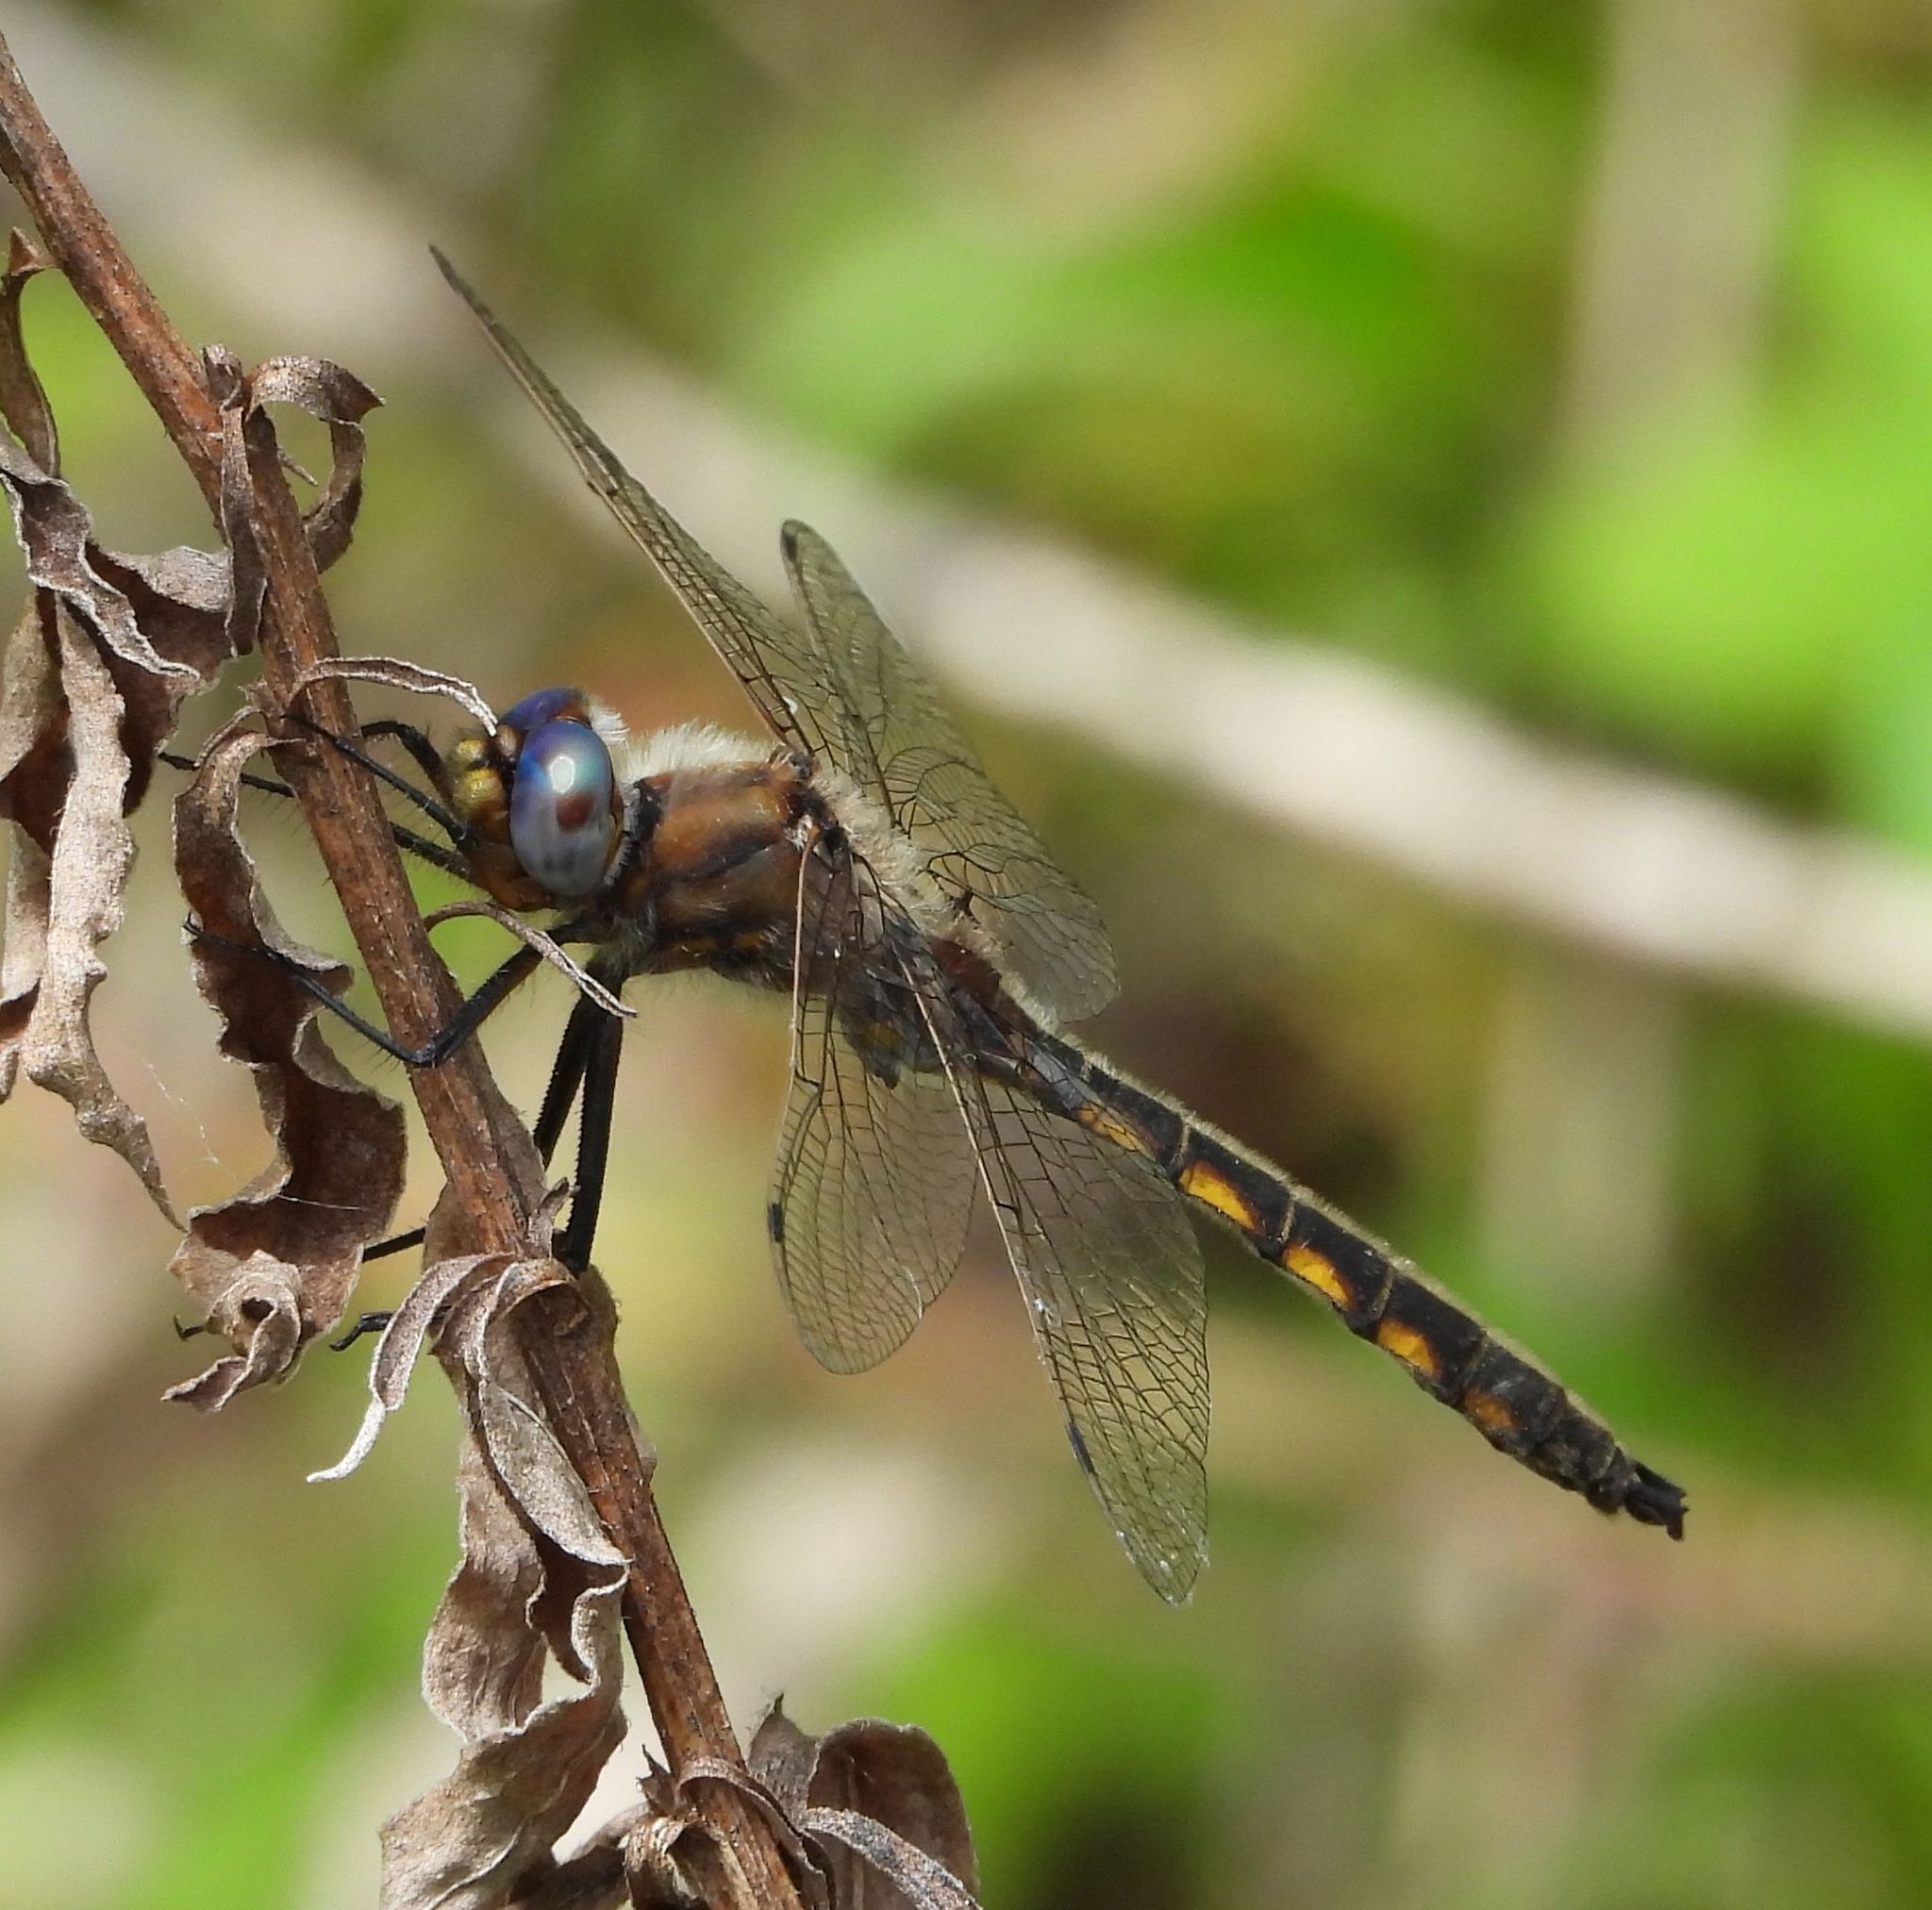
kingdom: Animalia
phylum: Arthropoda
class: Insecta
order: Odonata
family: Corduliidae
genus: Epitheca
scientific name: Epitheca canis
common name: Beaverpond baskettail
